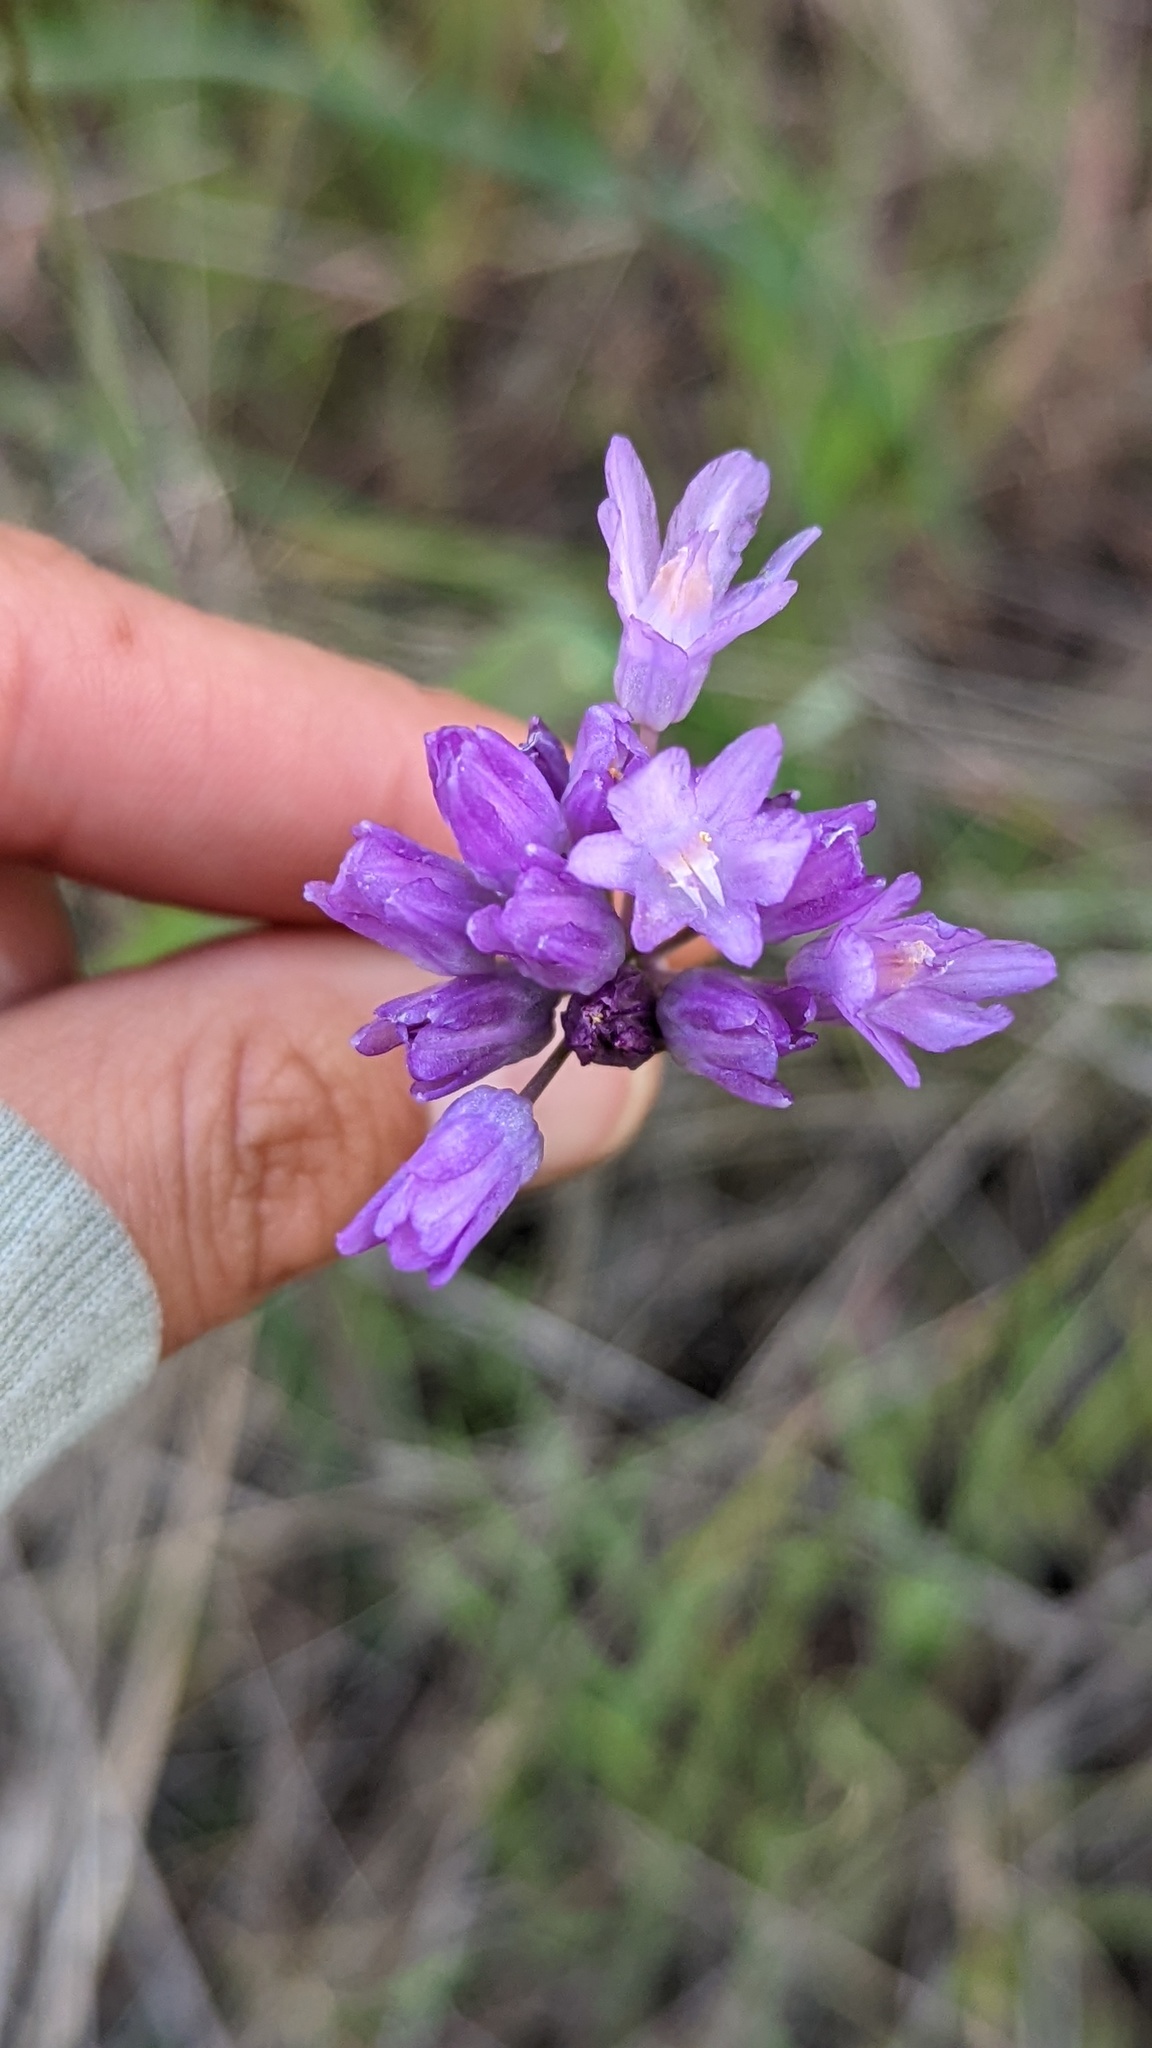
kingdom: Plantae
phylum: Tracheophyta
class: Liliopsida
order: Asparagales
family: Asparagaceae
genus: Dipterostemon
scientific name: Dipterostemon capitatus
